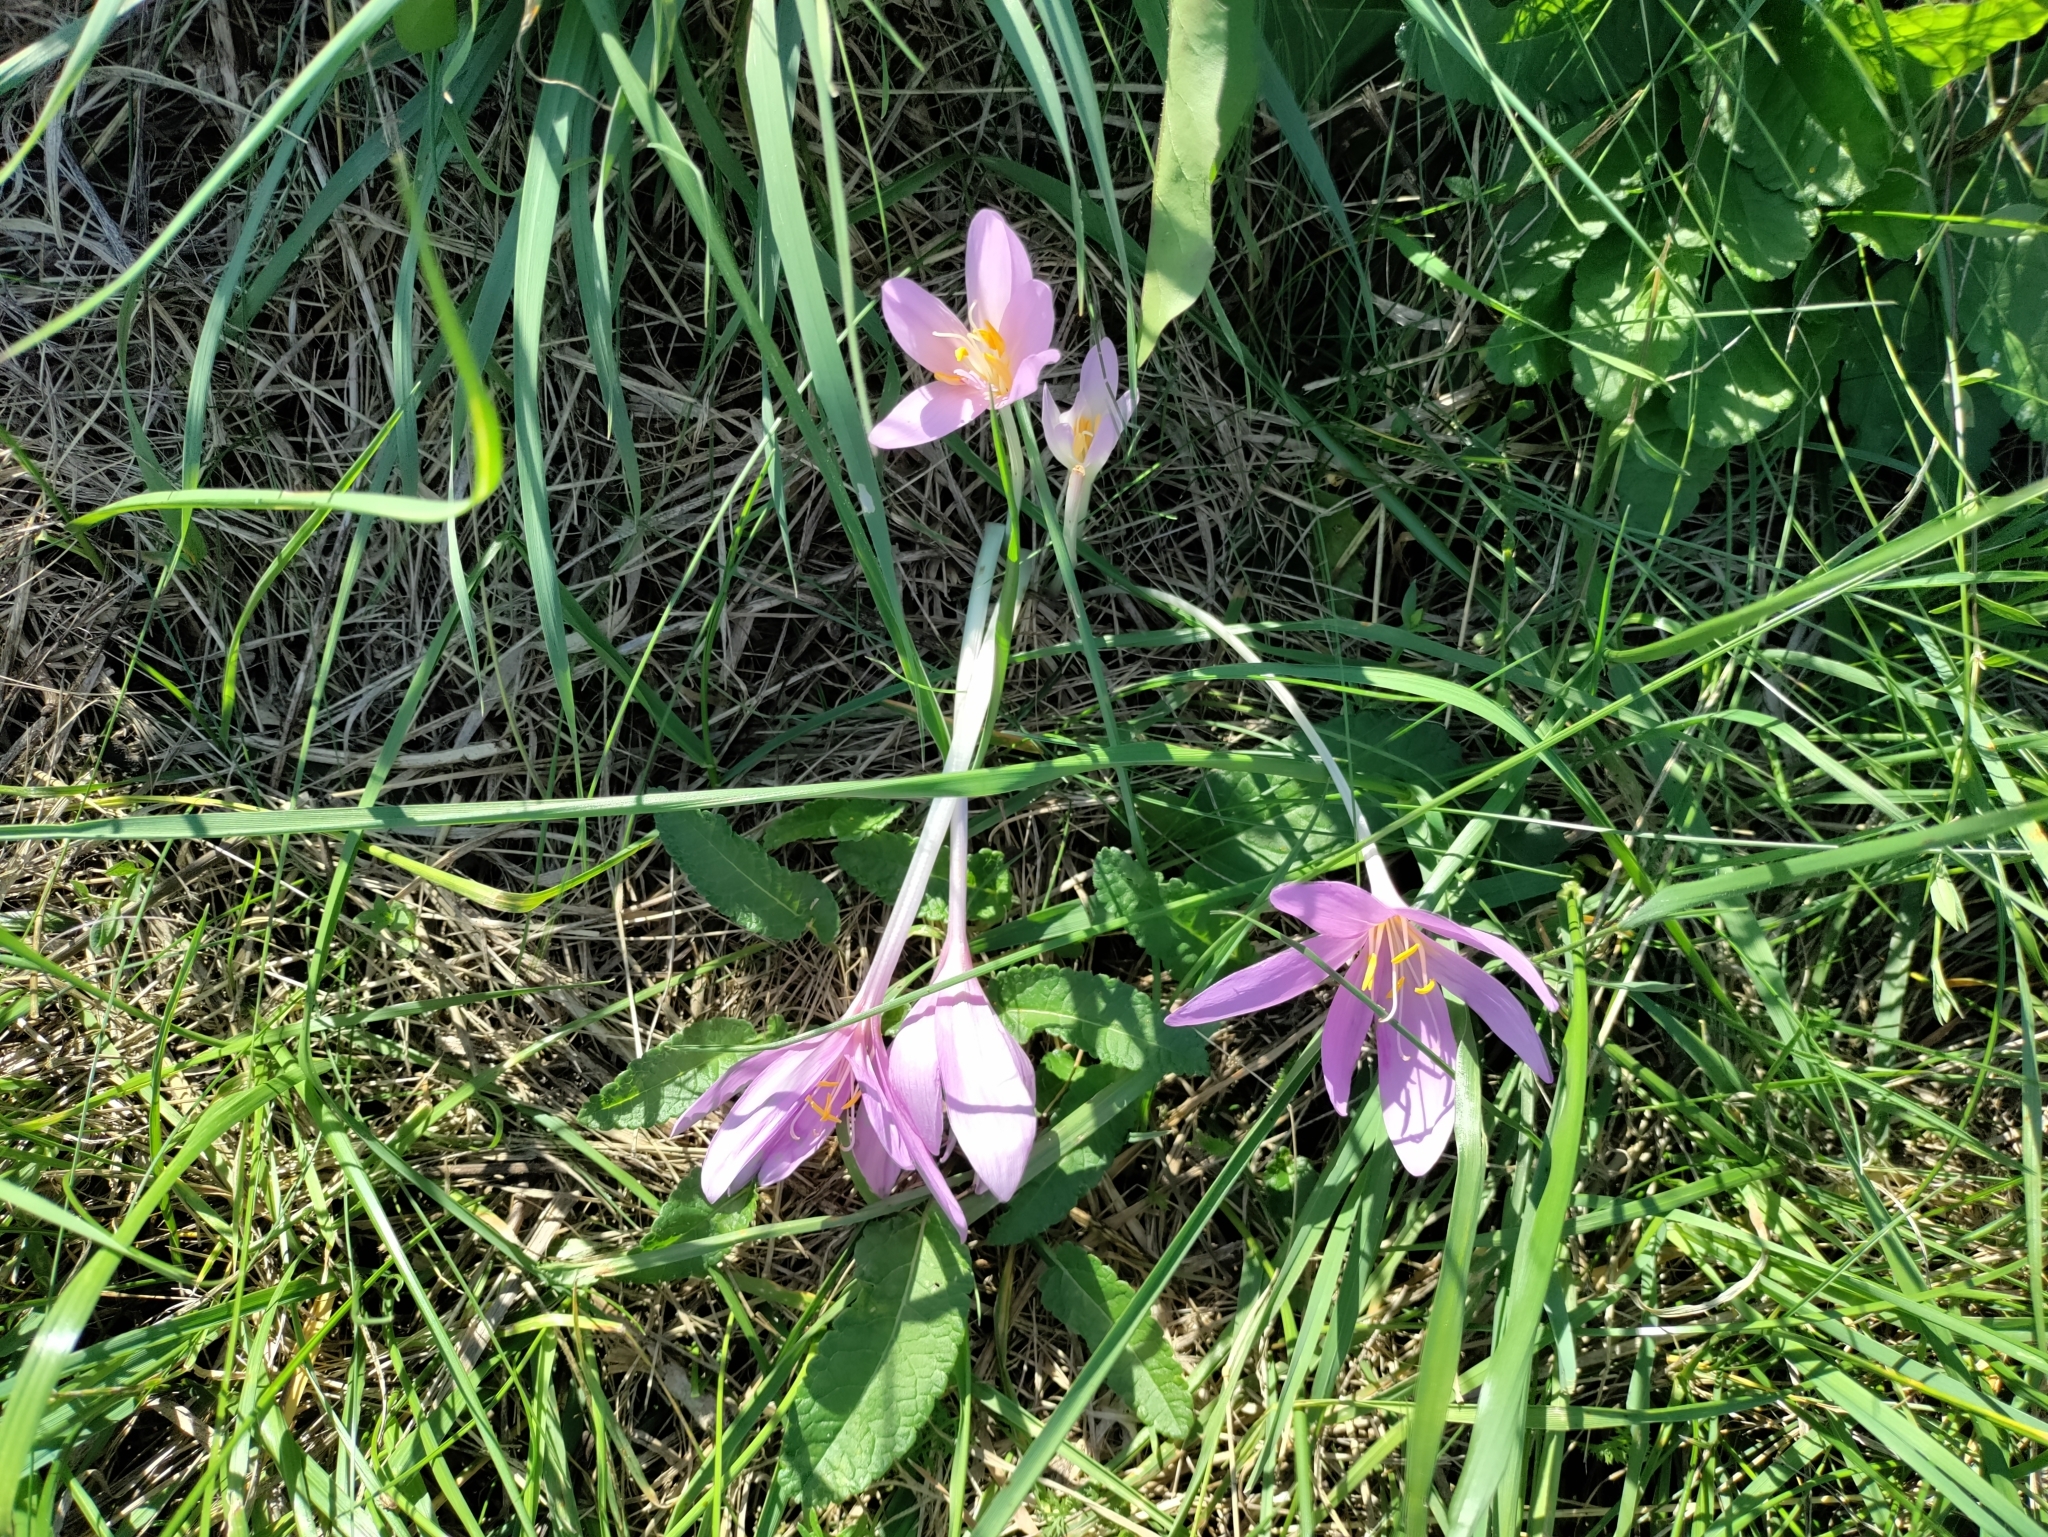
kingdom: Plantae
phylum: Tracheophyta
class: Liliopsida
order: Liliales
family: Colchicaceae
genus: Colchicum
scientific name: Colchicum autumnale
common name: Autumn crocus
